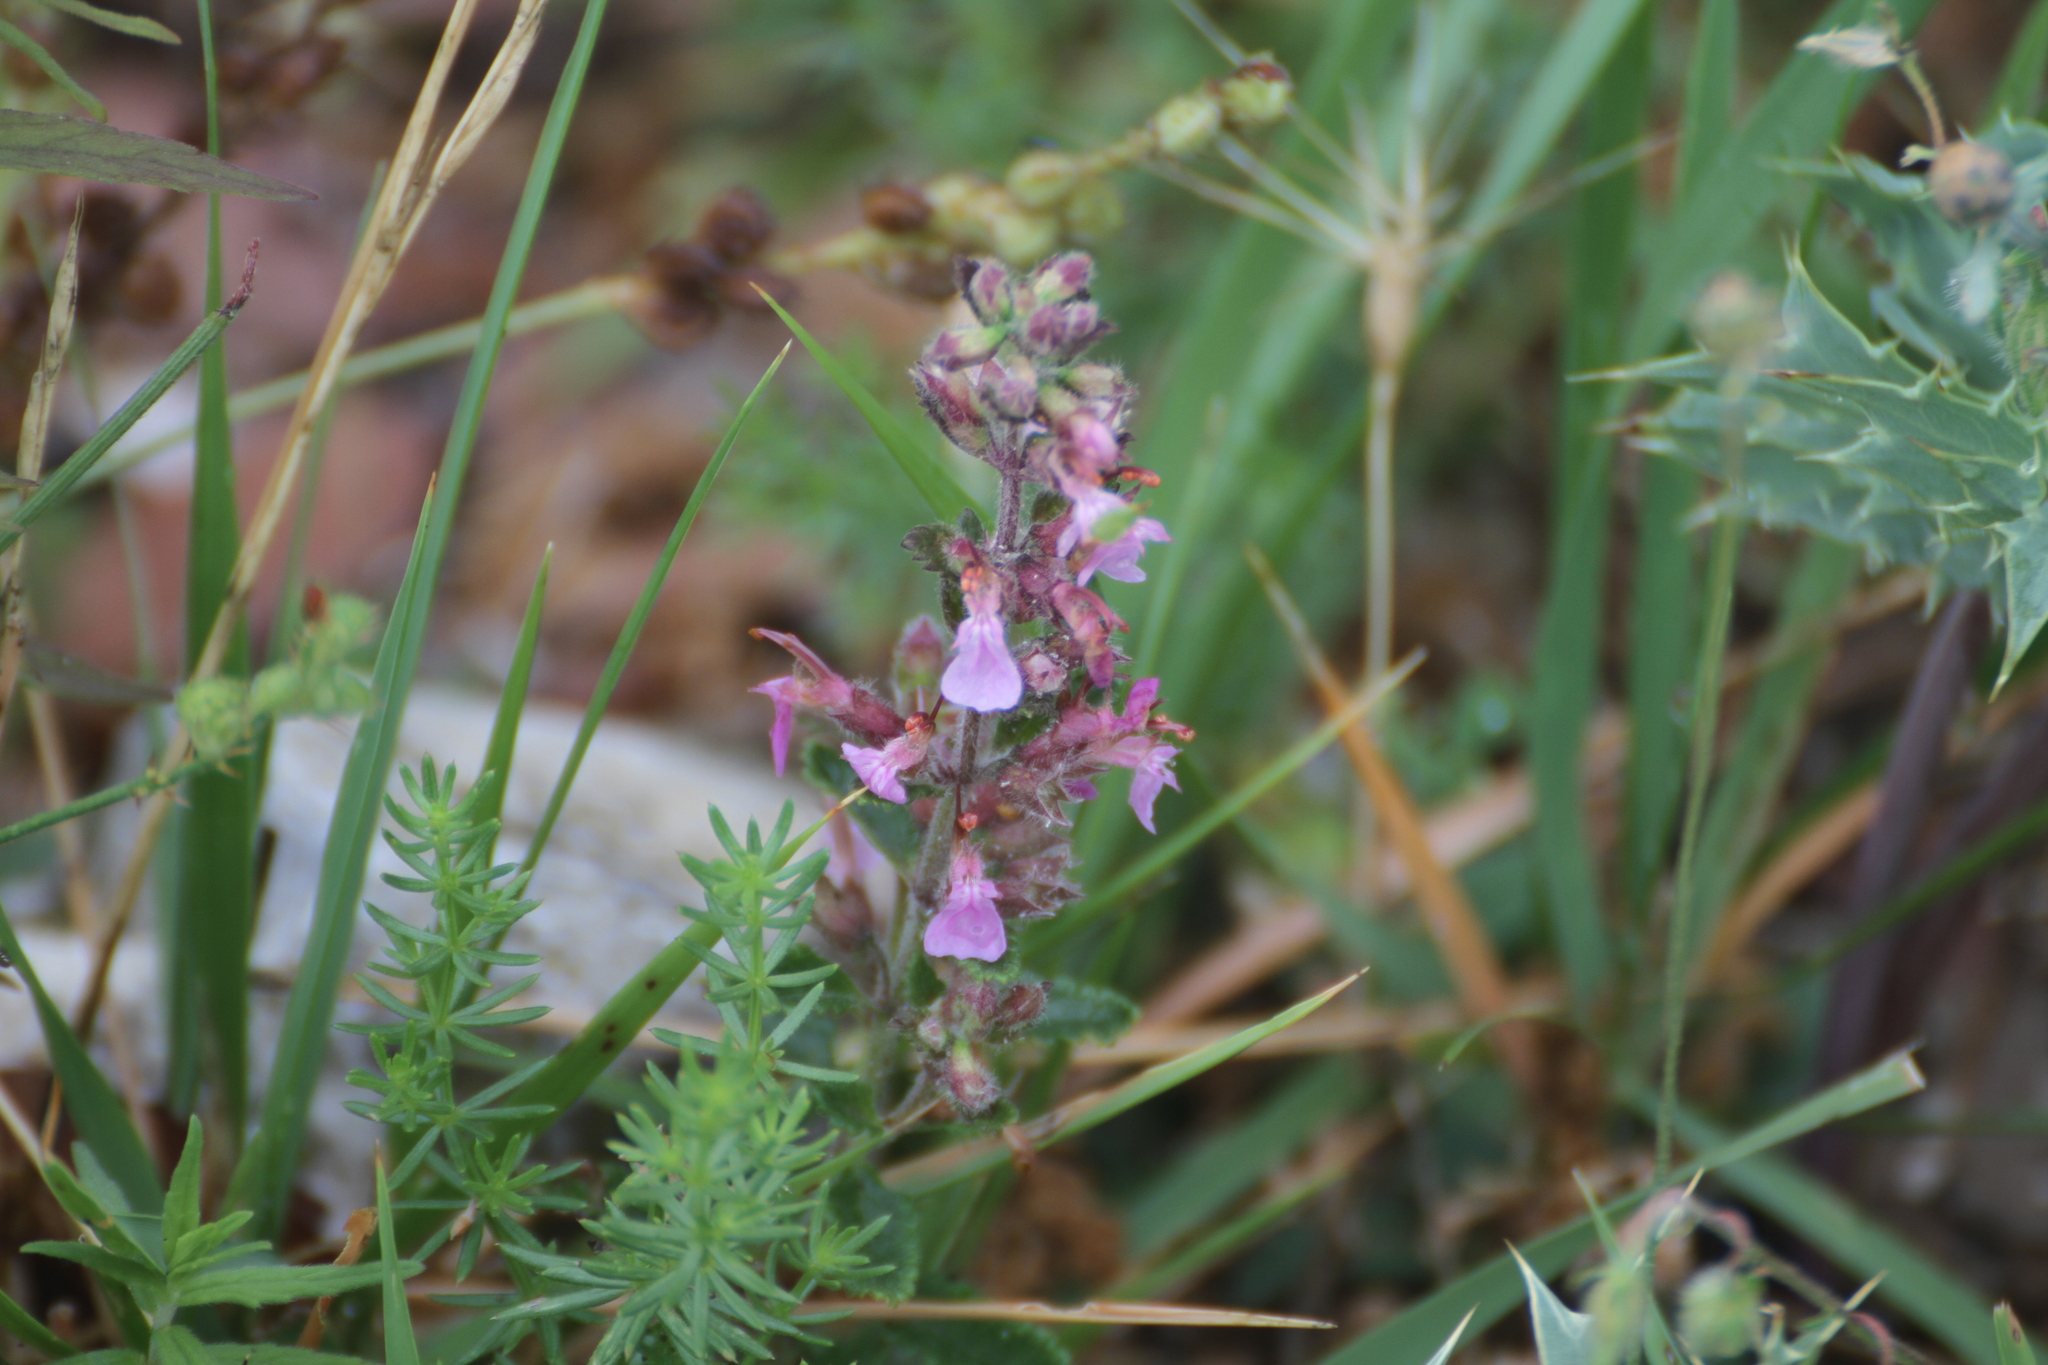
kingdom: Plantae
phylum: Tracheophyta
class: Magnoliopsida
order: Lamiales
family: Lamiaceae
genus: Teucrium
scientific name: Teucrium chamaedrys
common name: Wall germander
